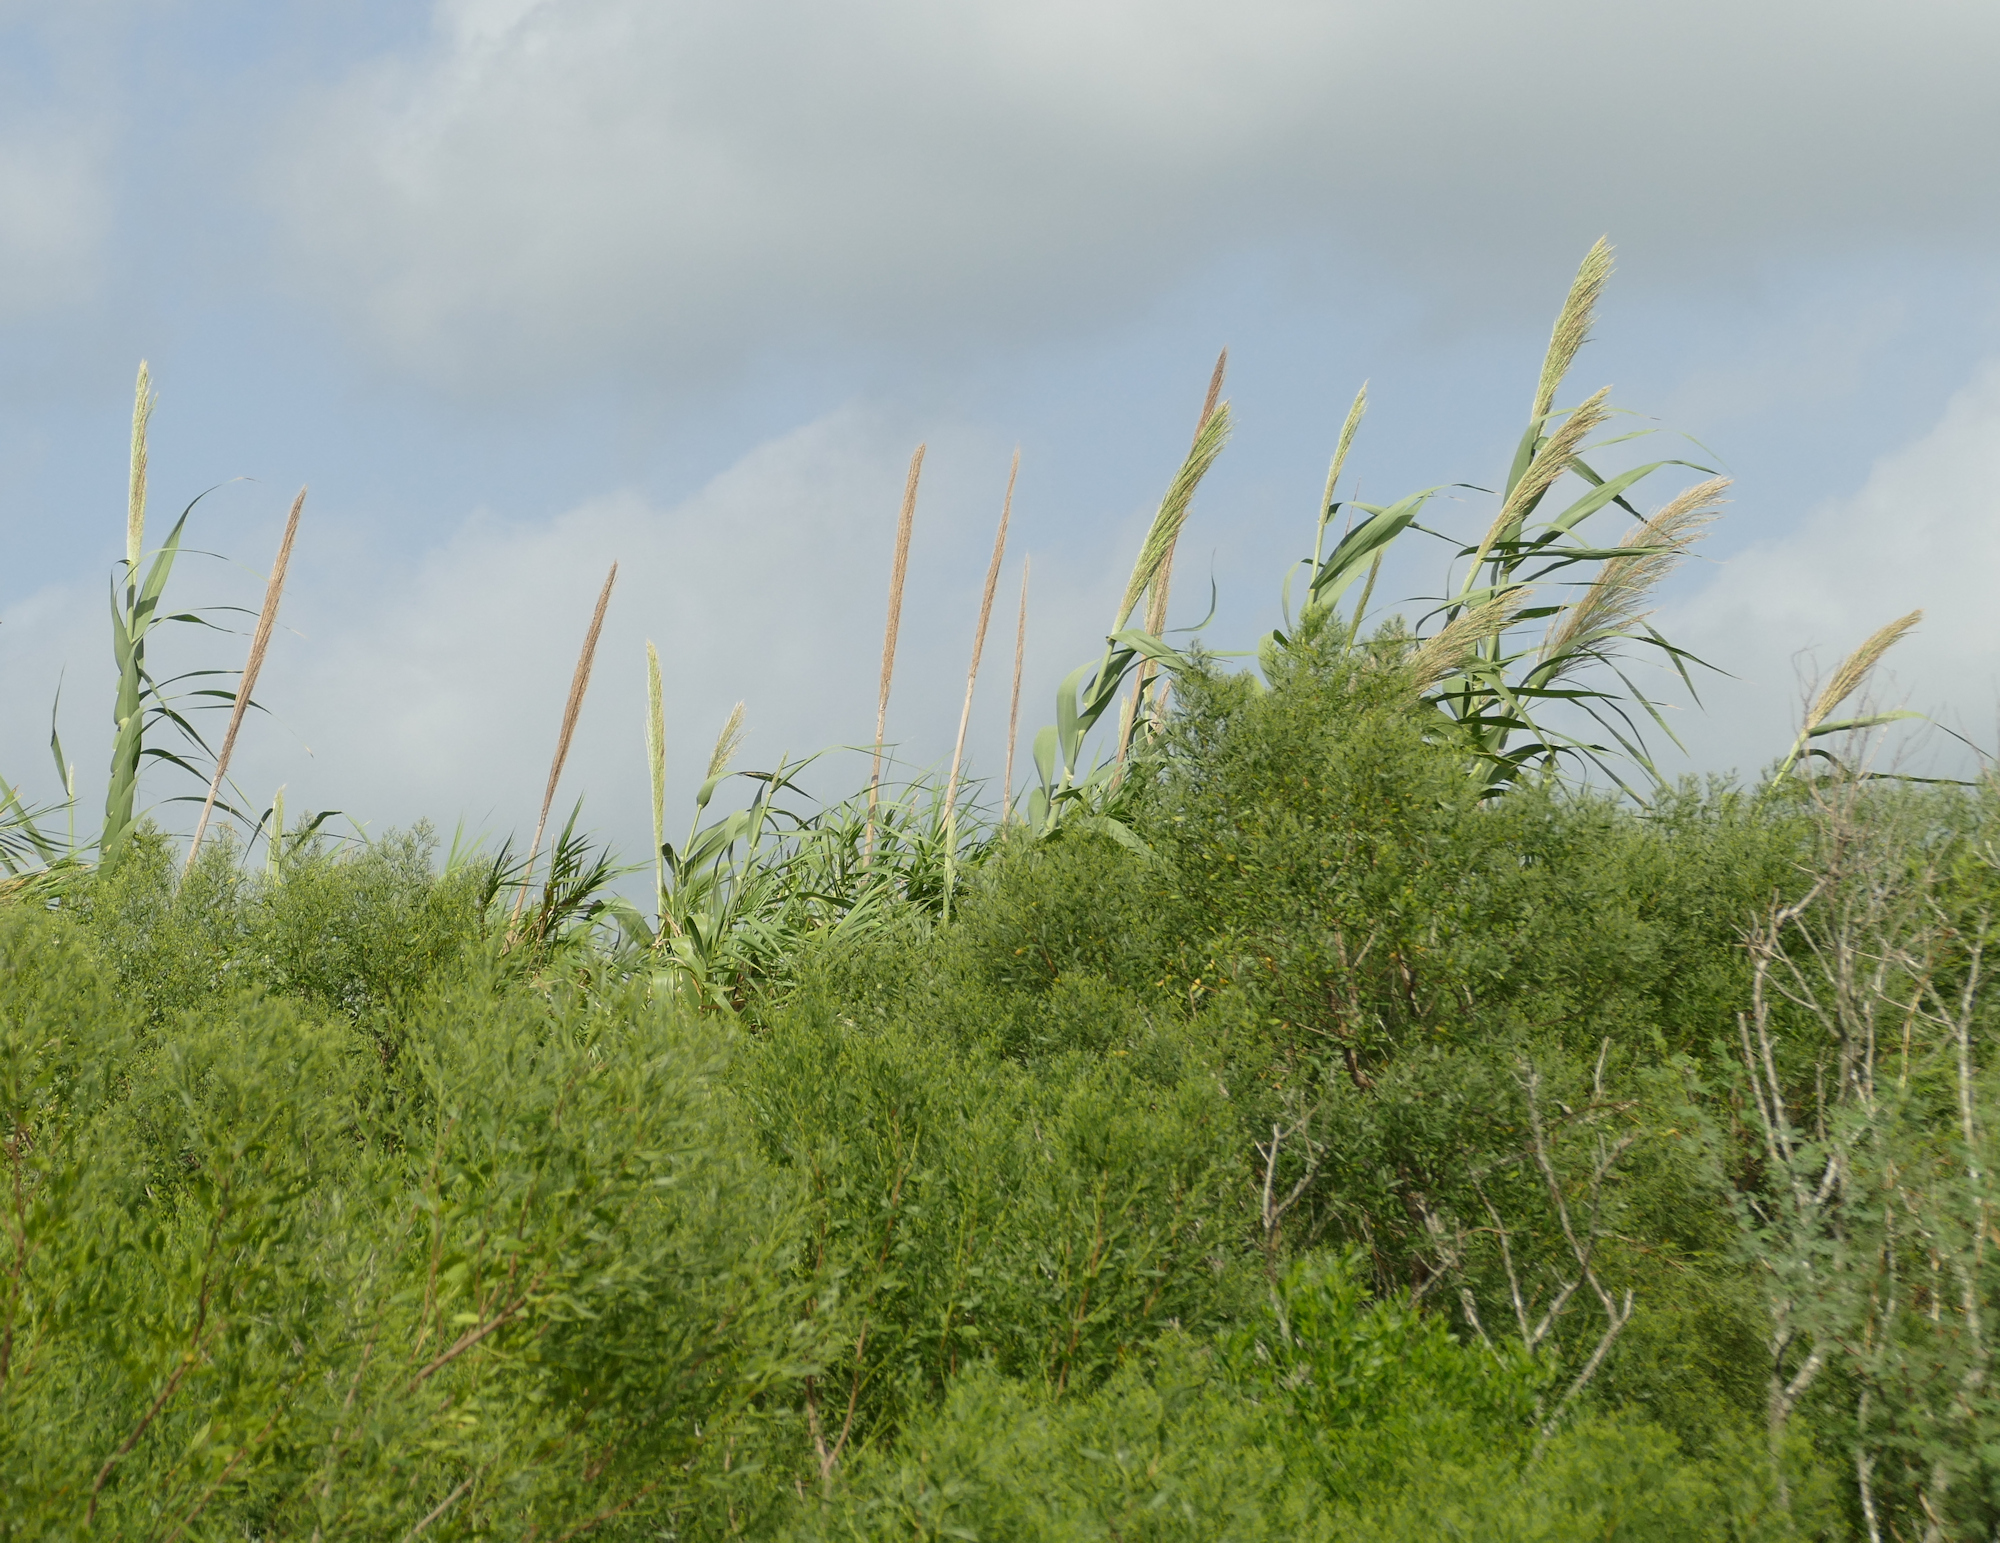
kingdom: Plantae
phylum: Tracheophyta
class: Liliopsida
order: Poales
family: Poaceae
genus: Arundo
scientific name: Arundo donax
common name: Giant reed
